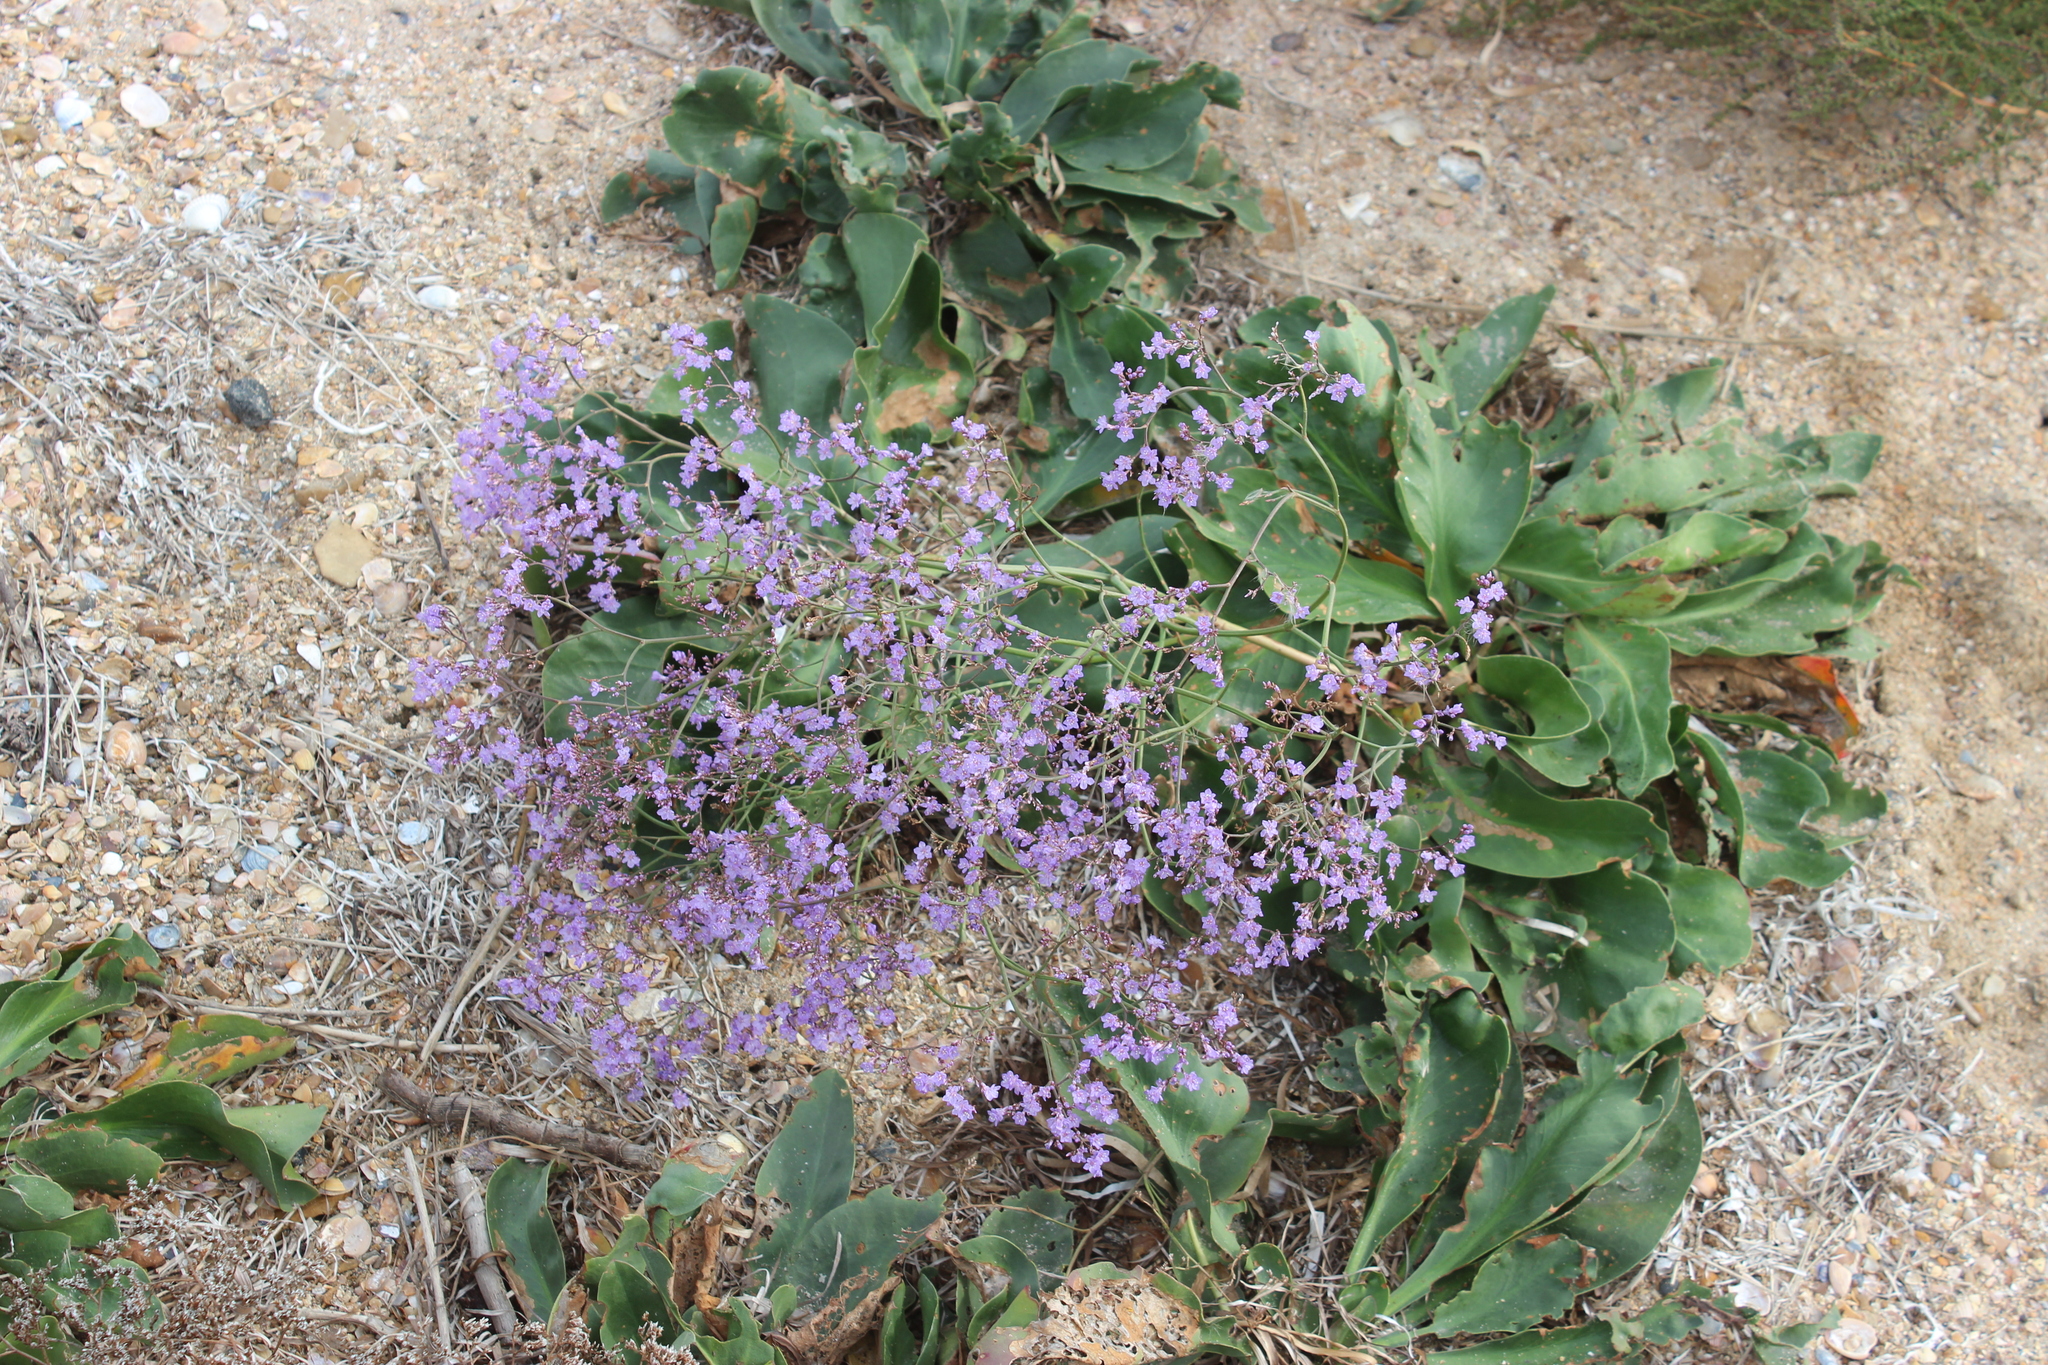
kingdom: Plantae
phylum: Tracheophyta
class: Magnoliopsida
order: Caryophyllales
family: Plumbaginaceae
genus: Limonium
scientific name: Limonium gmelini
